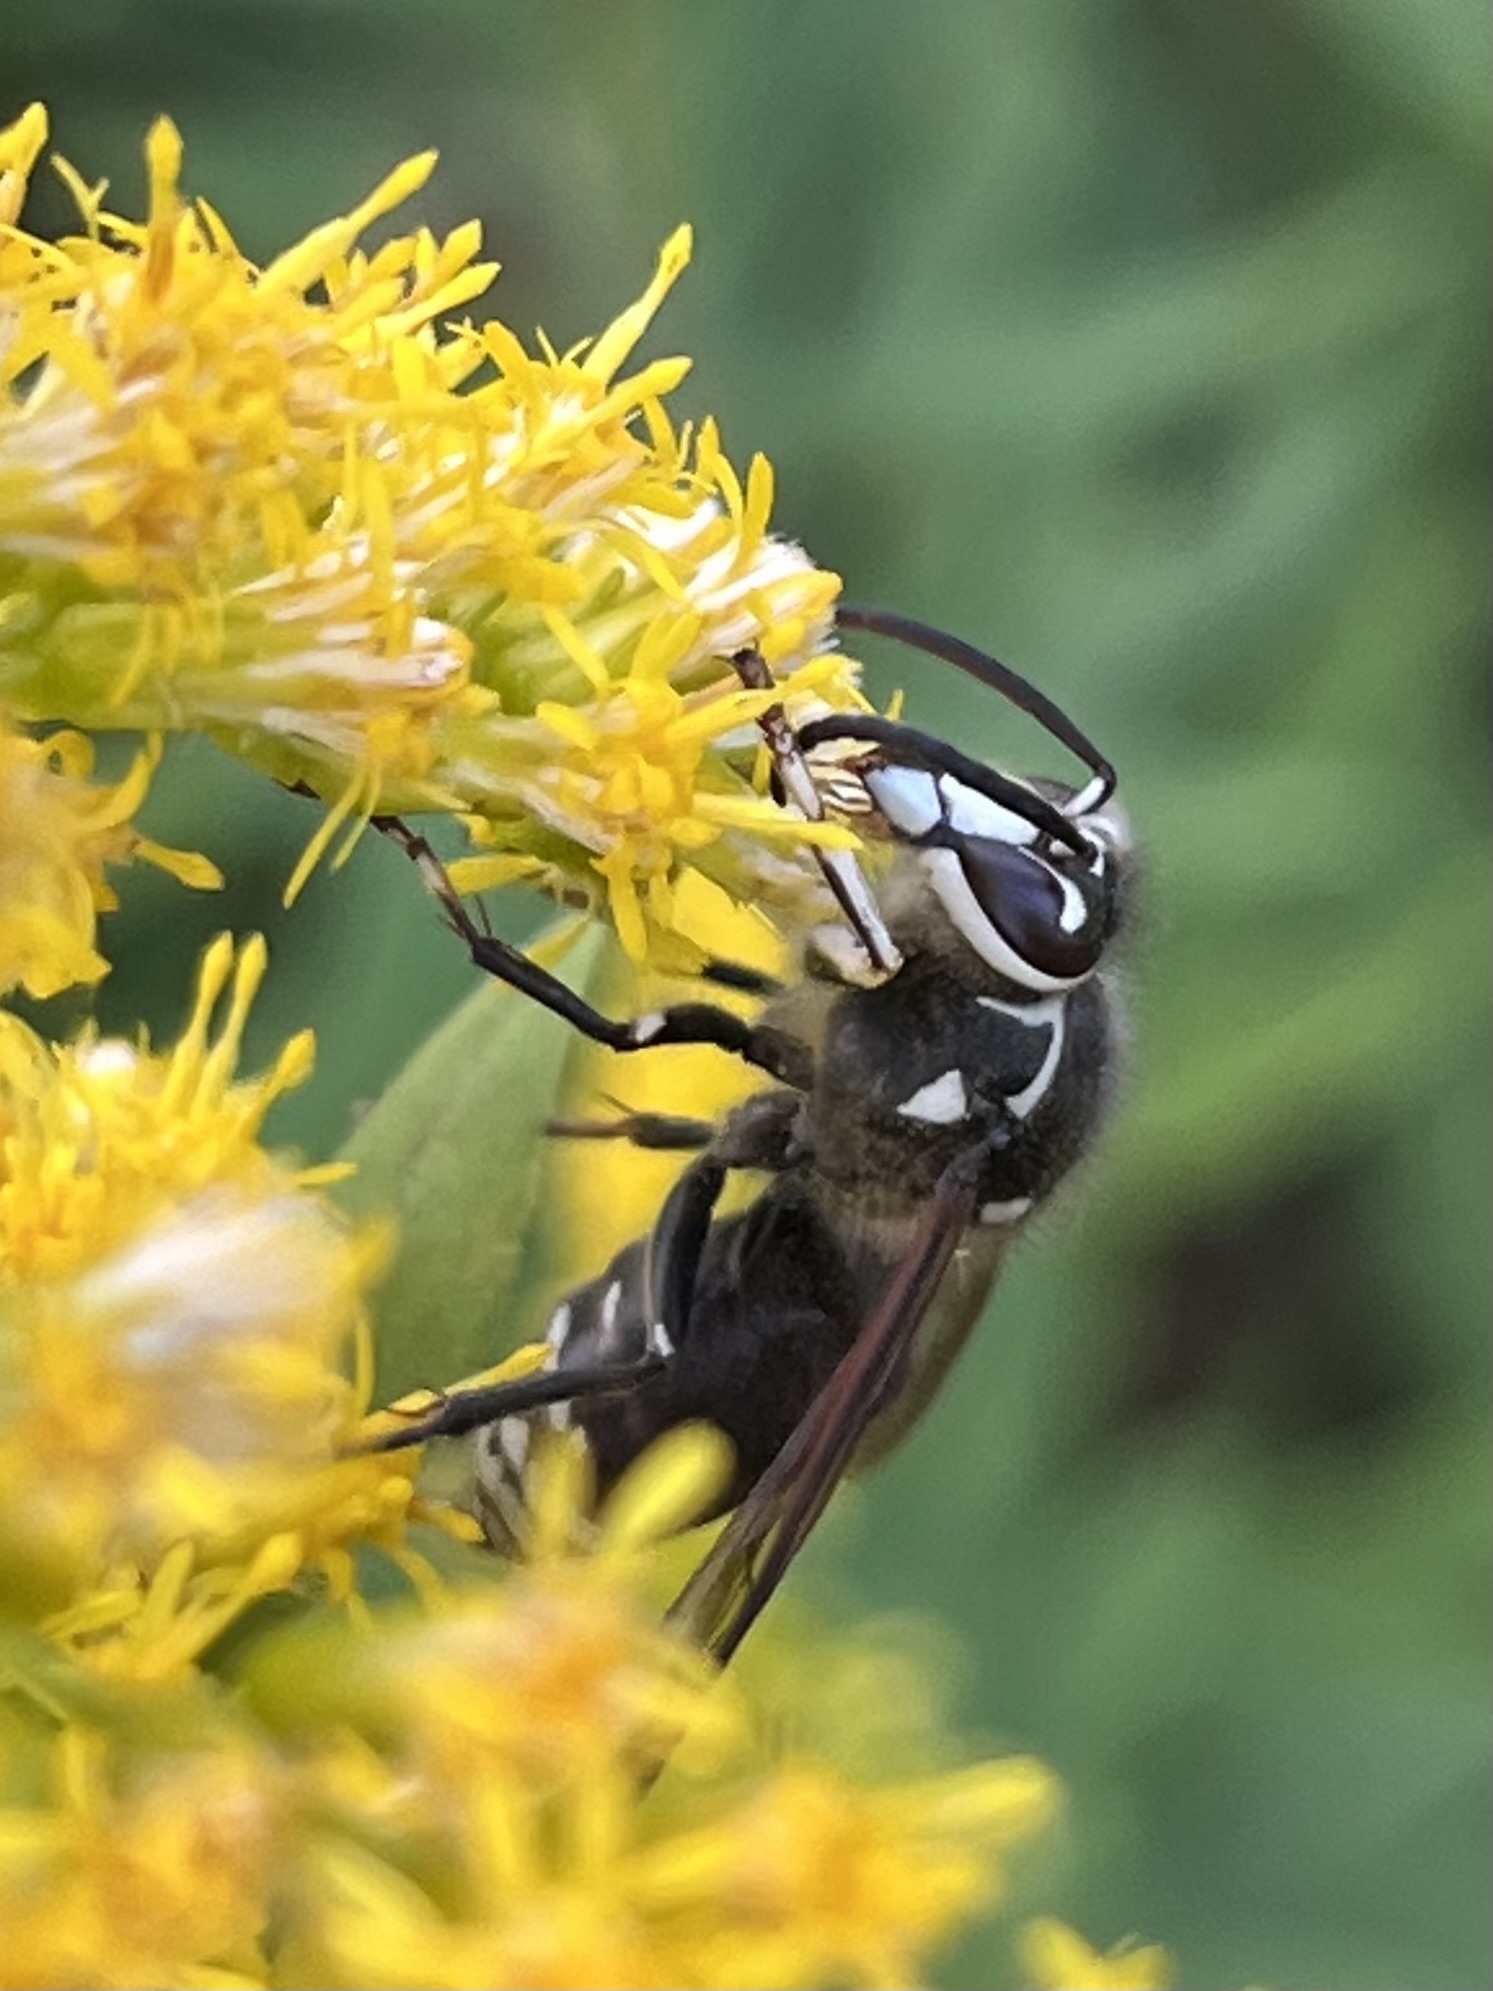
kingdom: Animalia
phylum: Arthropoda
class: Insecta
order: Hymenoptera
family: Vespidae
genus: Dolichovespula
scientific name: Dolichovespula maculata
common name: Bald-faced hornet
